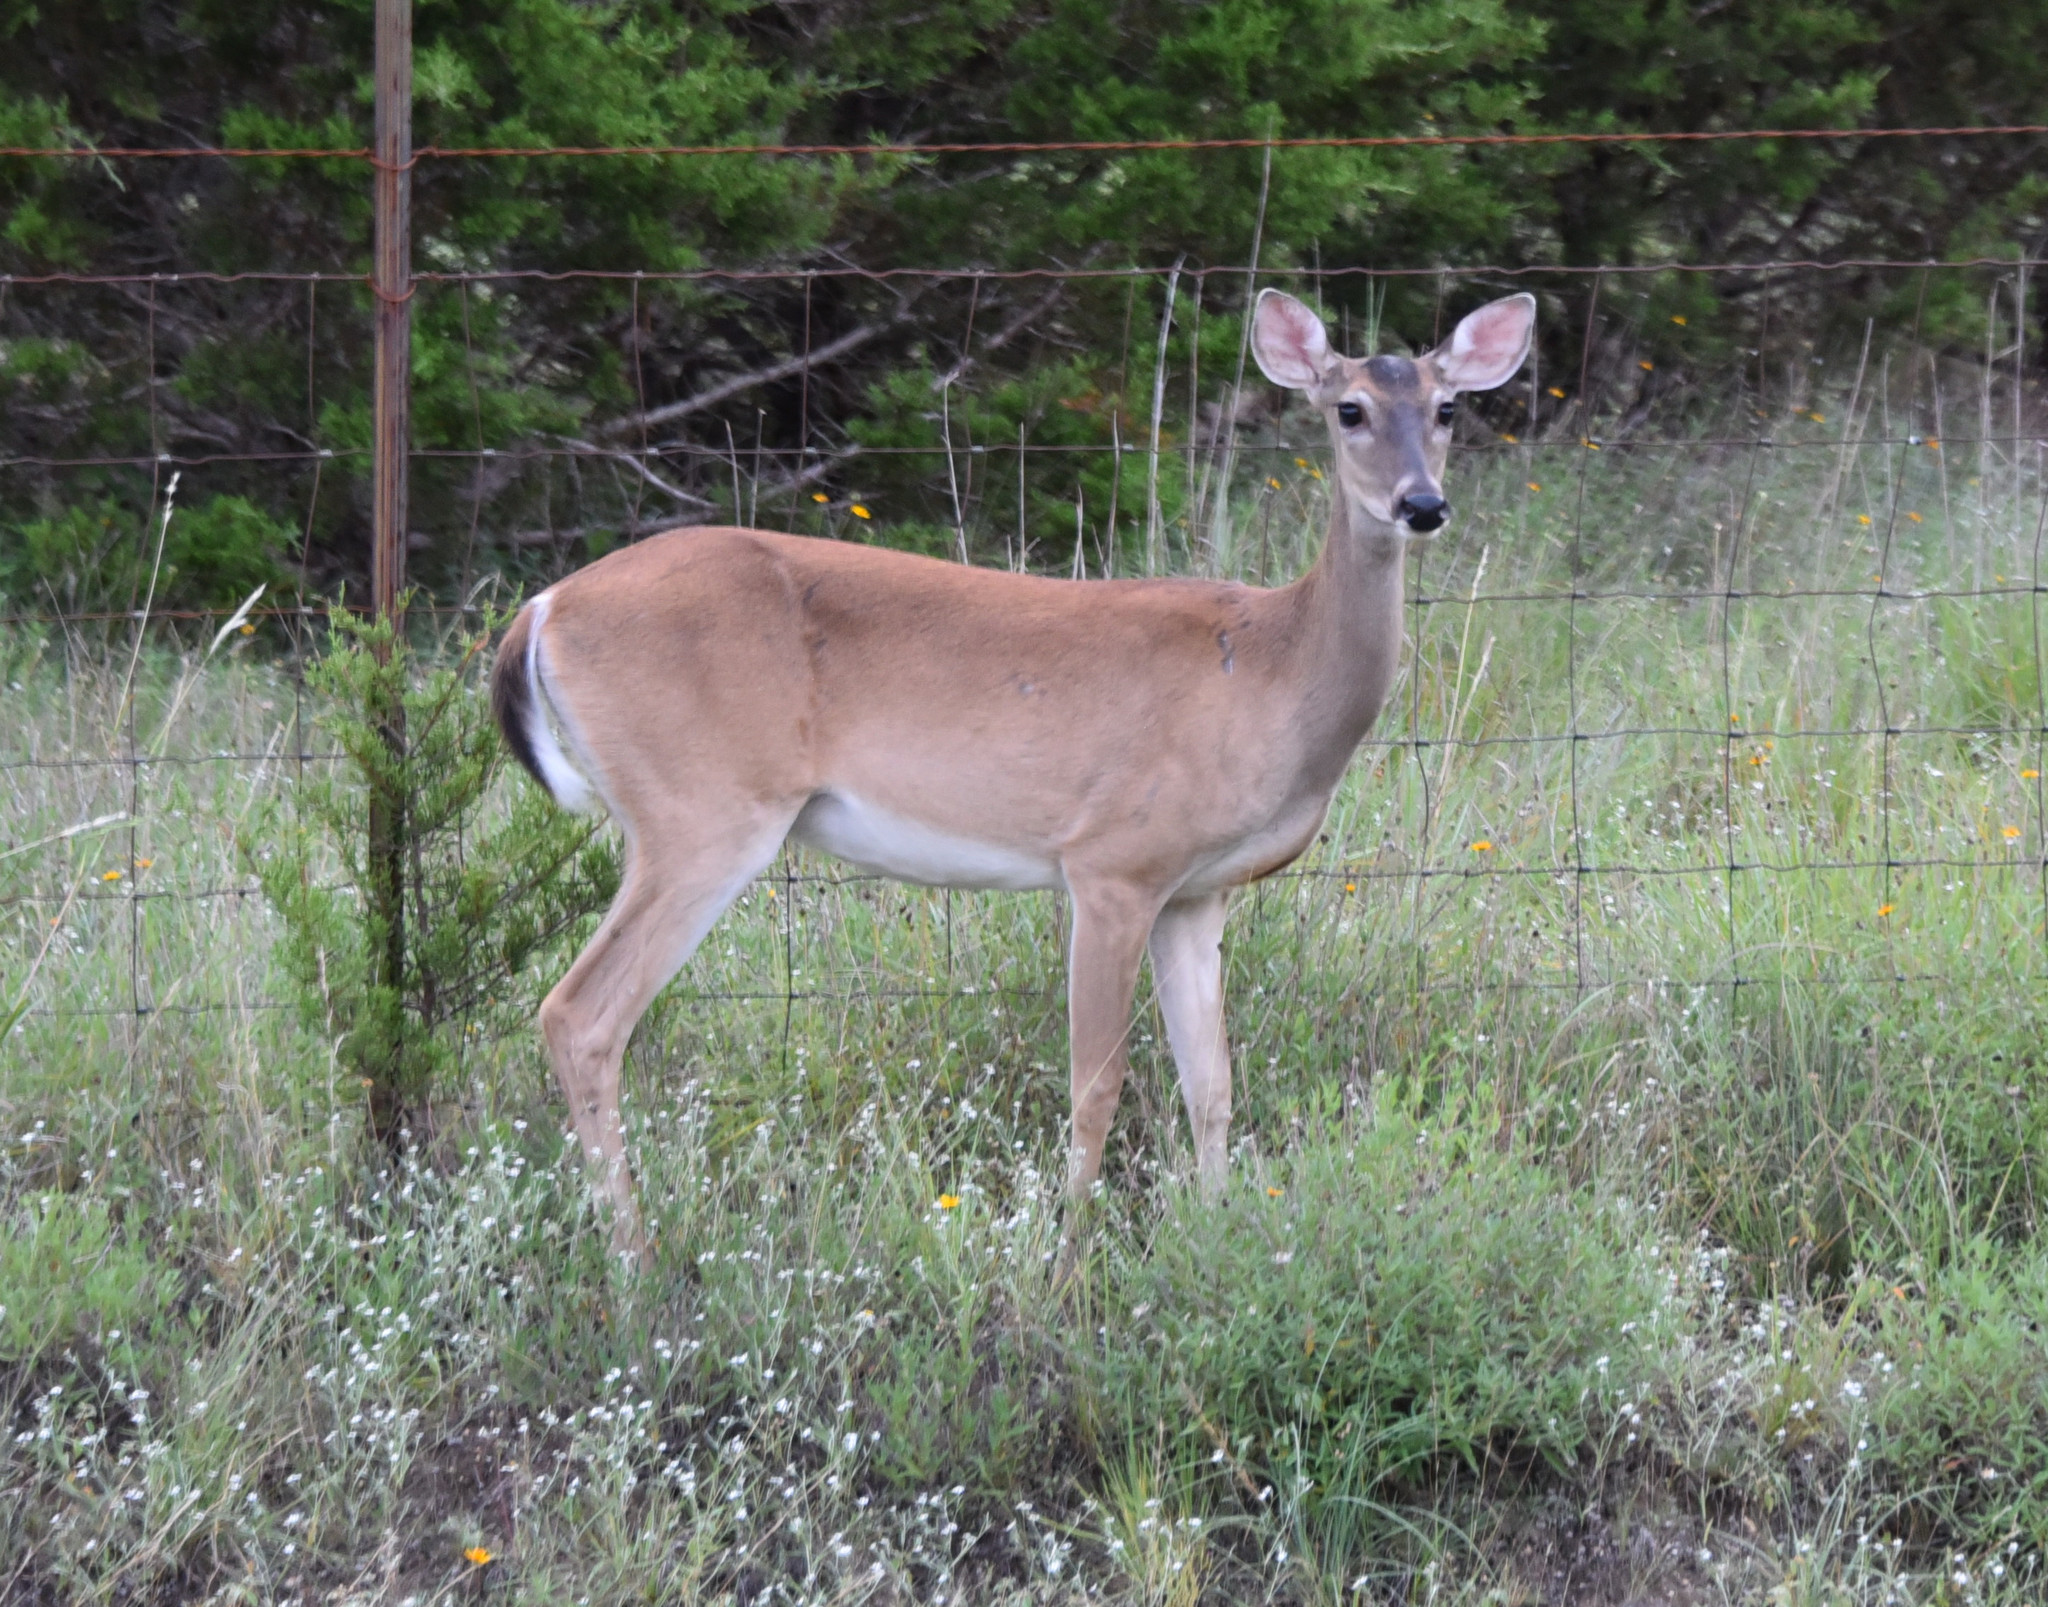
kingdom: Animalia
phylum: Chordata
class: Mammalia
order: Artiodactyla
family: Cervidae
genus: Odocoileus
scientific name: Odocoileus virginianus
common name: White-tailed deer
